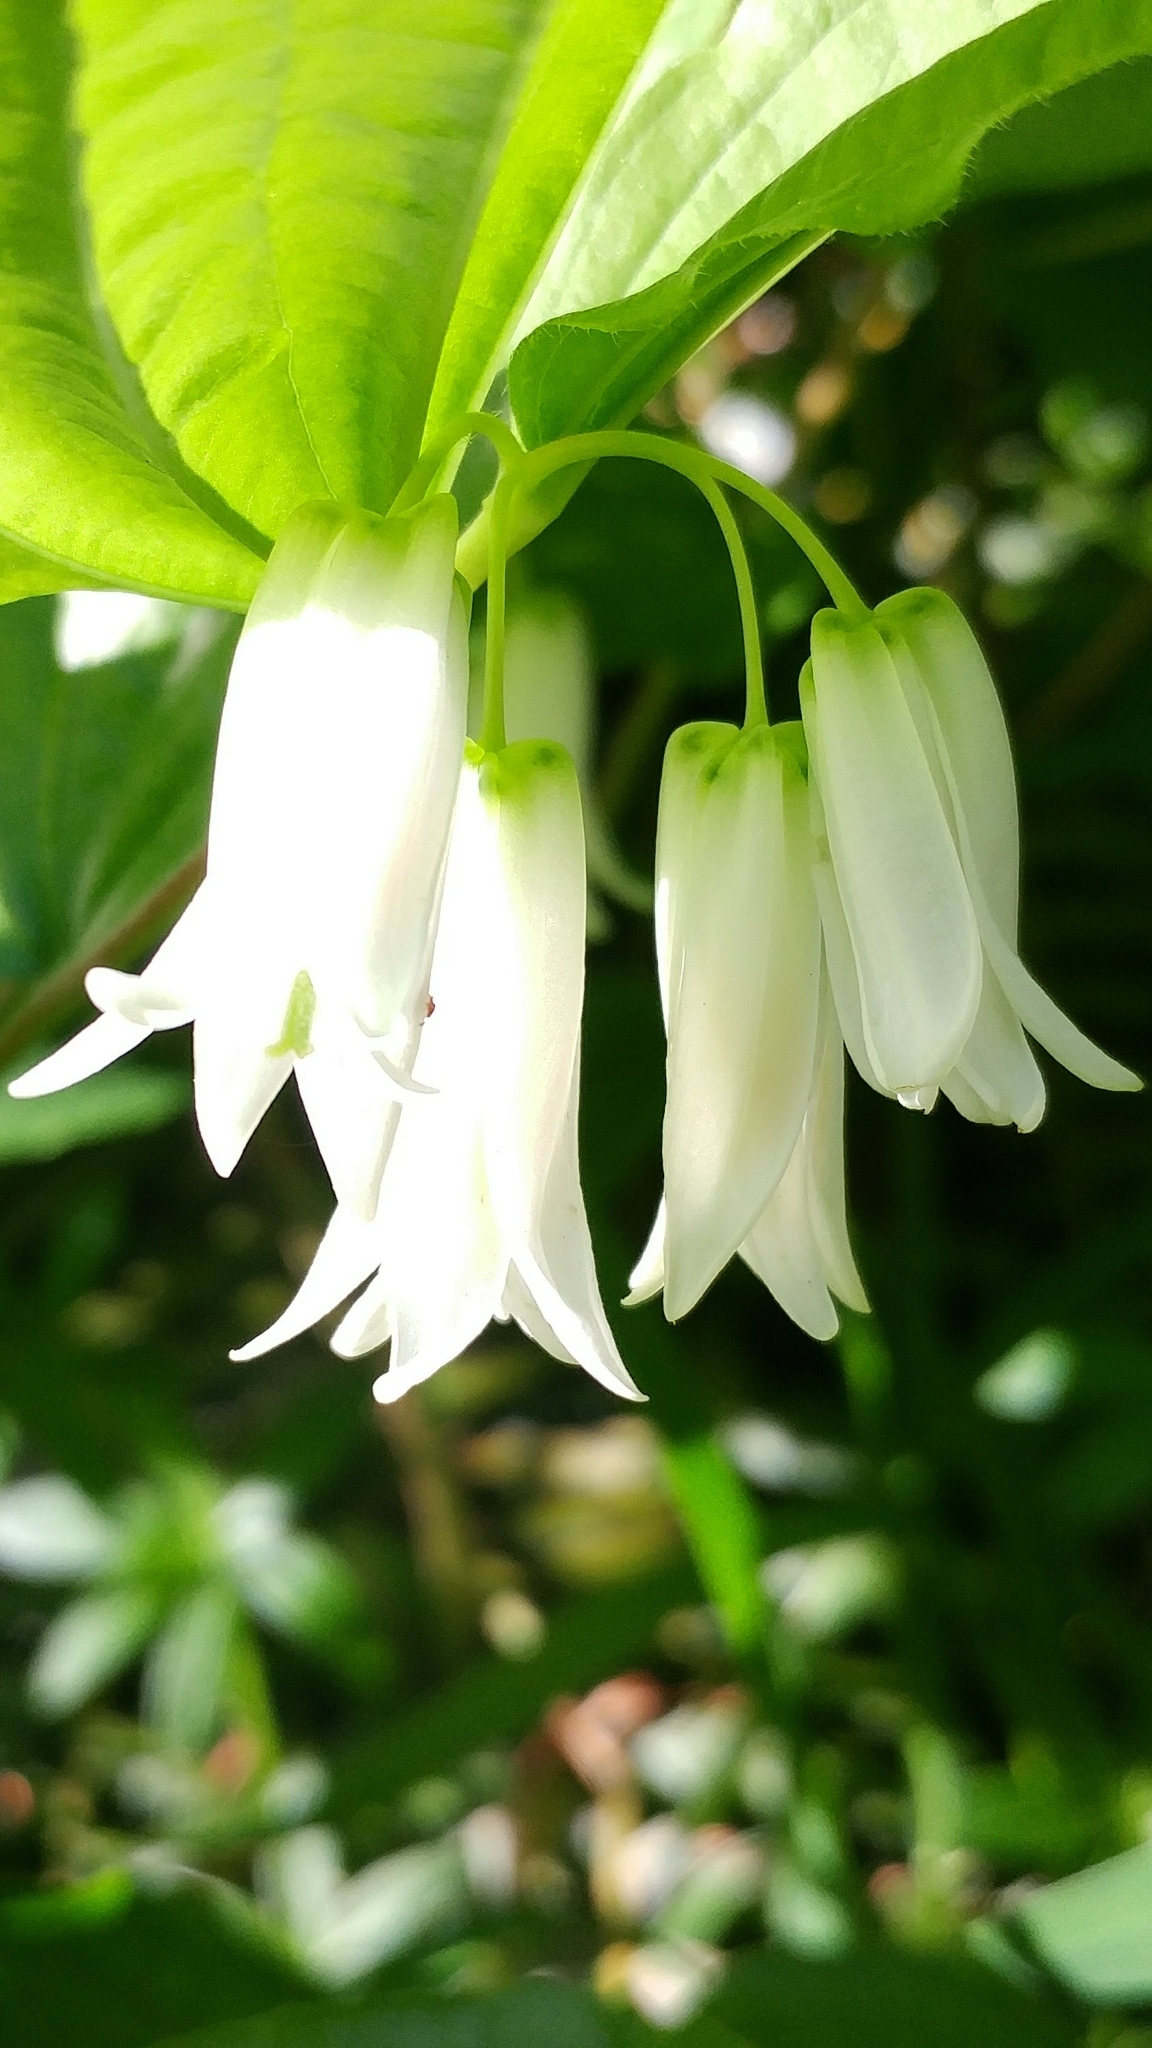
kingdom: Plantae
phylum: Tracheophyta
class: Liliopsida
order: Liliales
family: Liliaceae
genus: Prosartes
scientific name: Prosartes smithii
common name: Fairy-lantern
